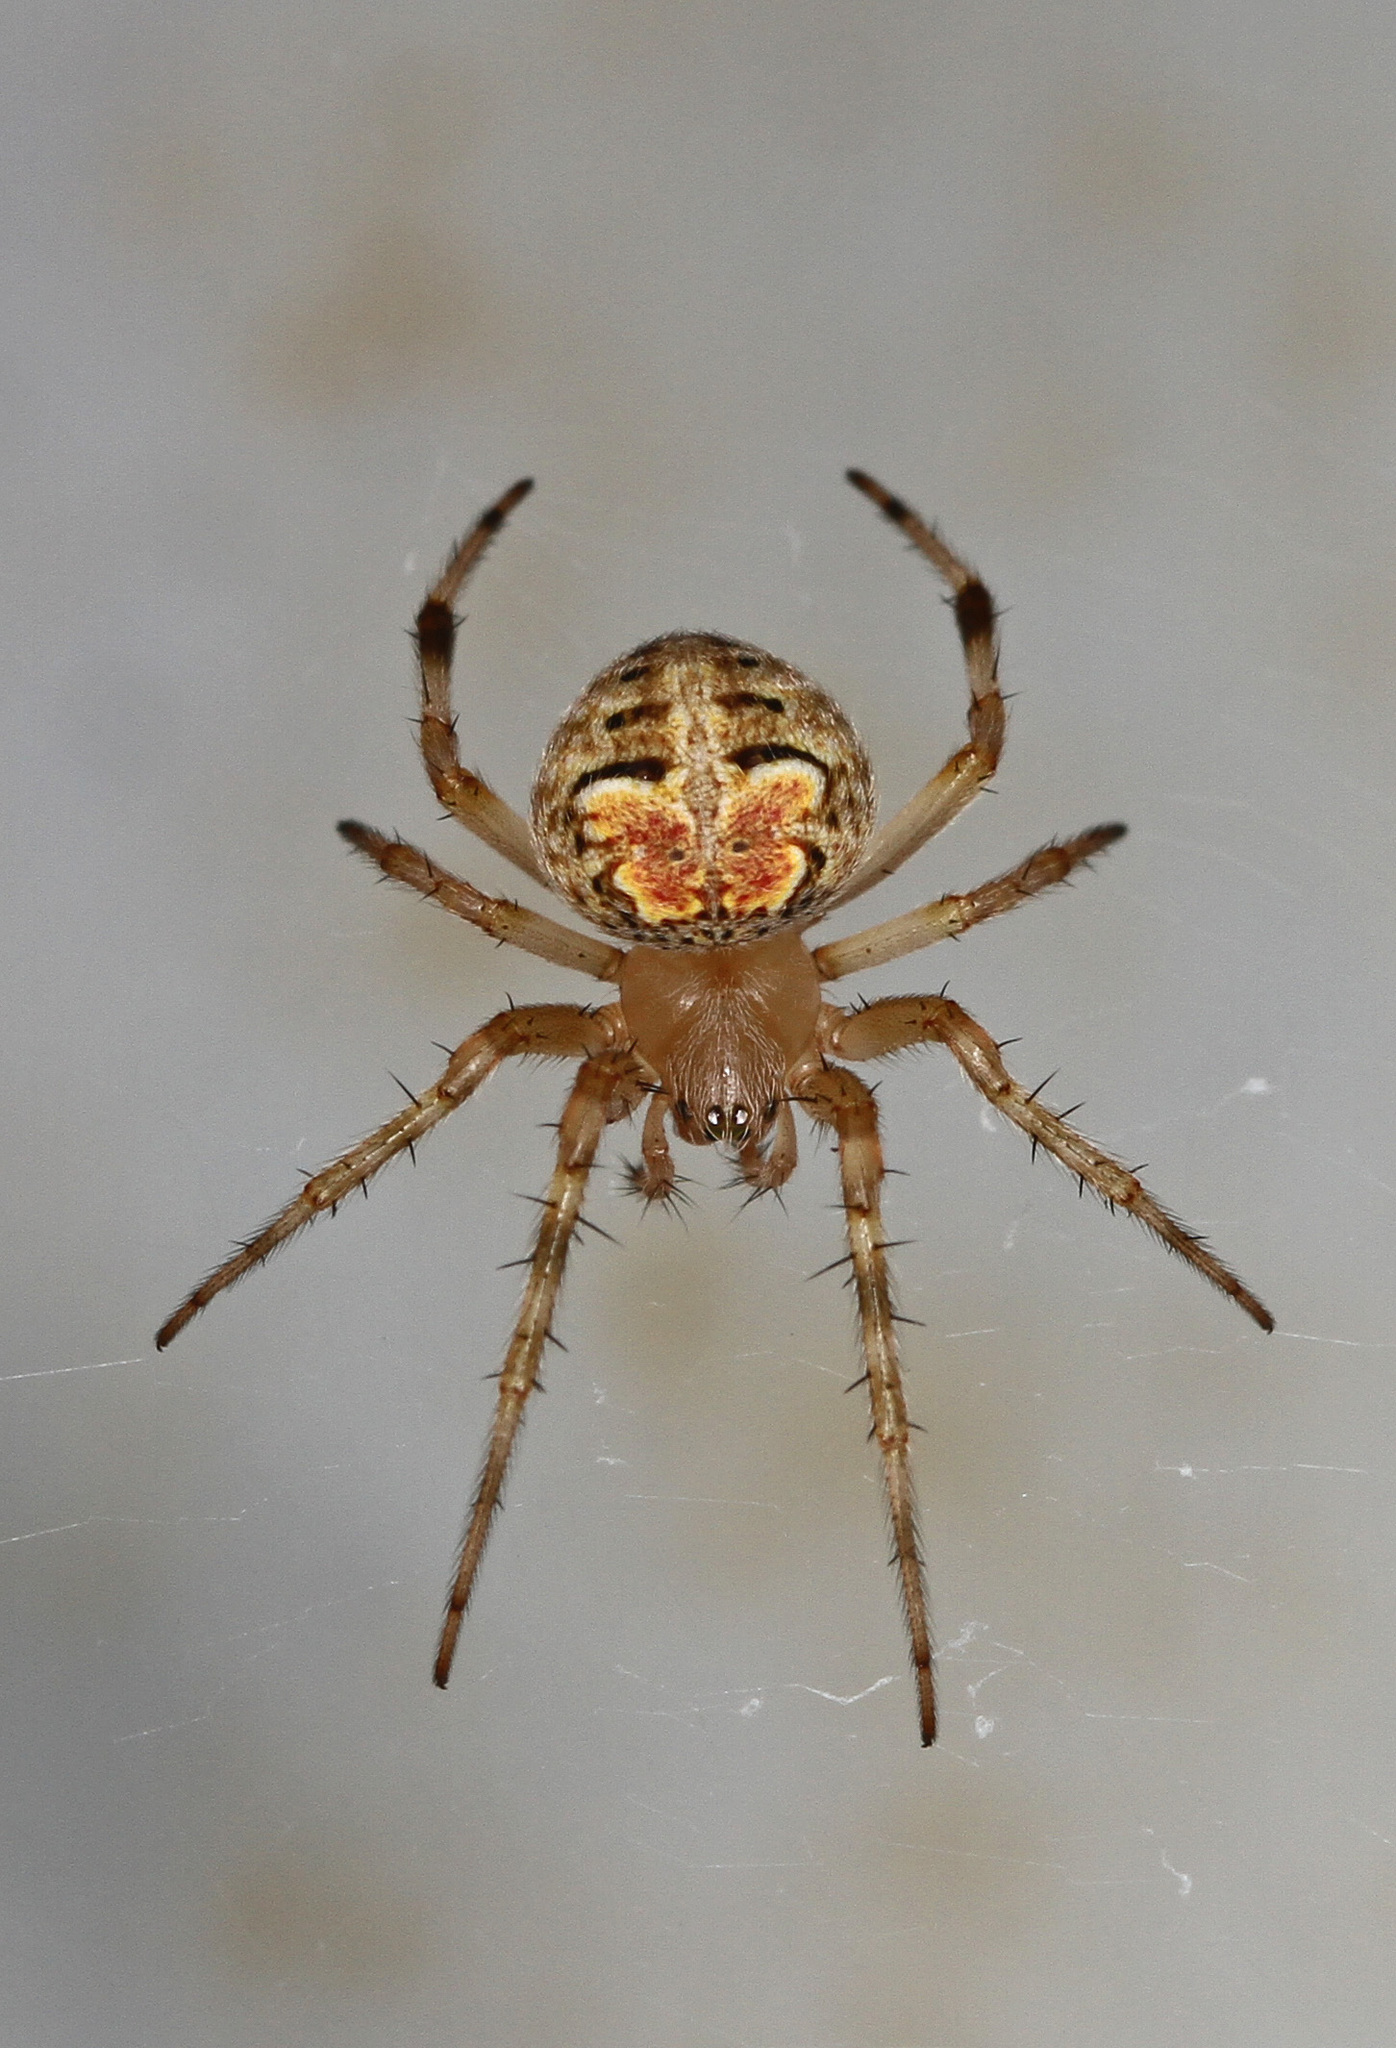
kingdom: Animalia
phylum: Arthropoda
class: Arachnida
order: Araneae
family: Araneidae
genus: Araneus
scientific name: Araneus pegnia
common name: Orb weavers
